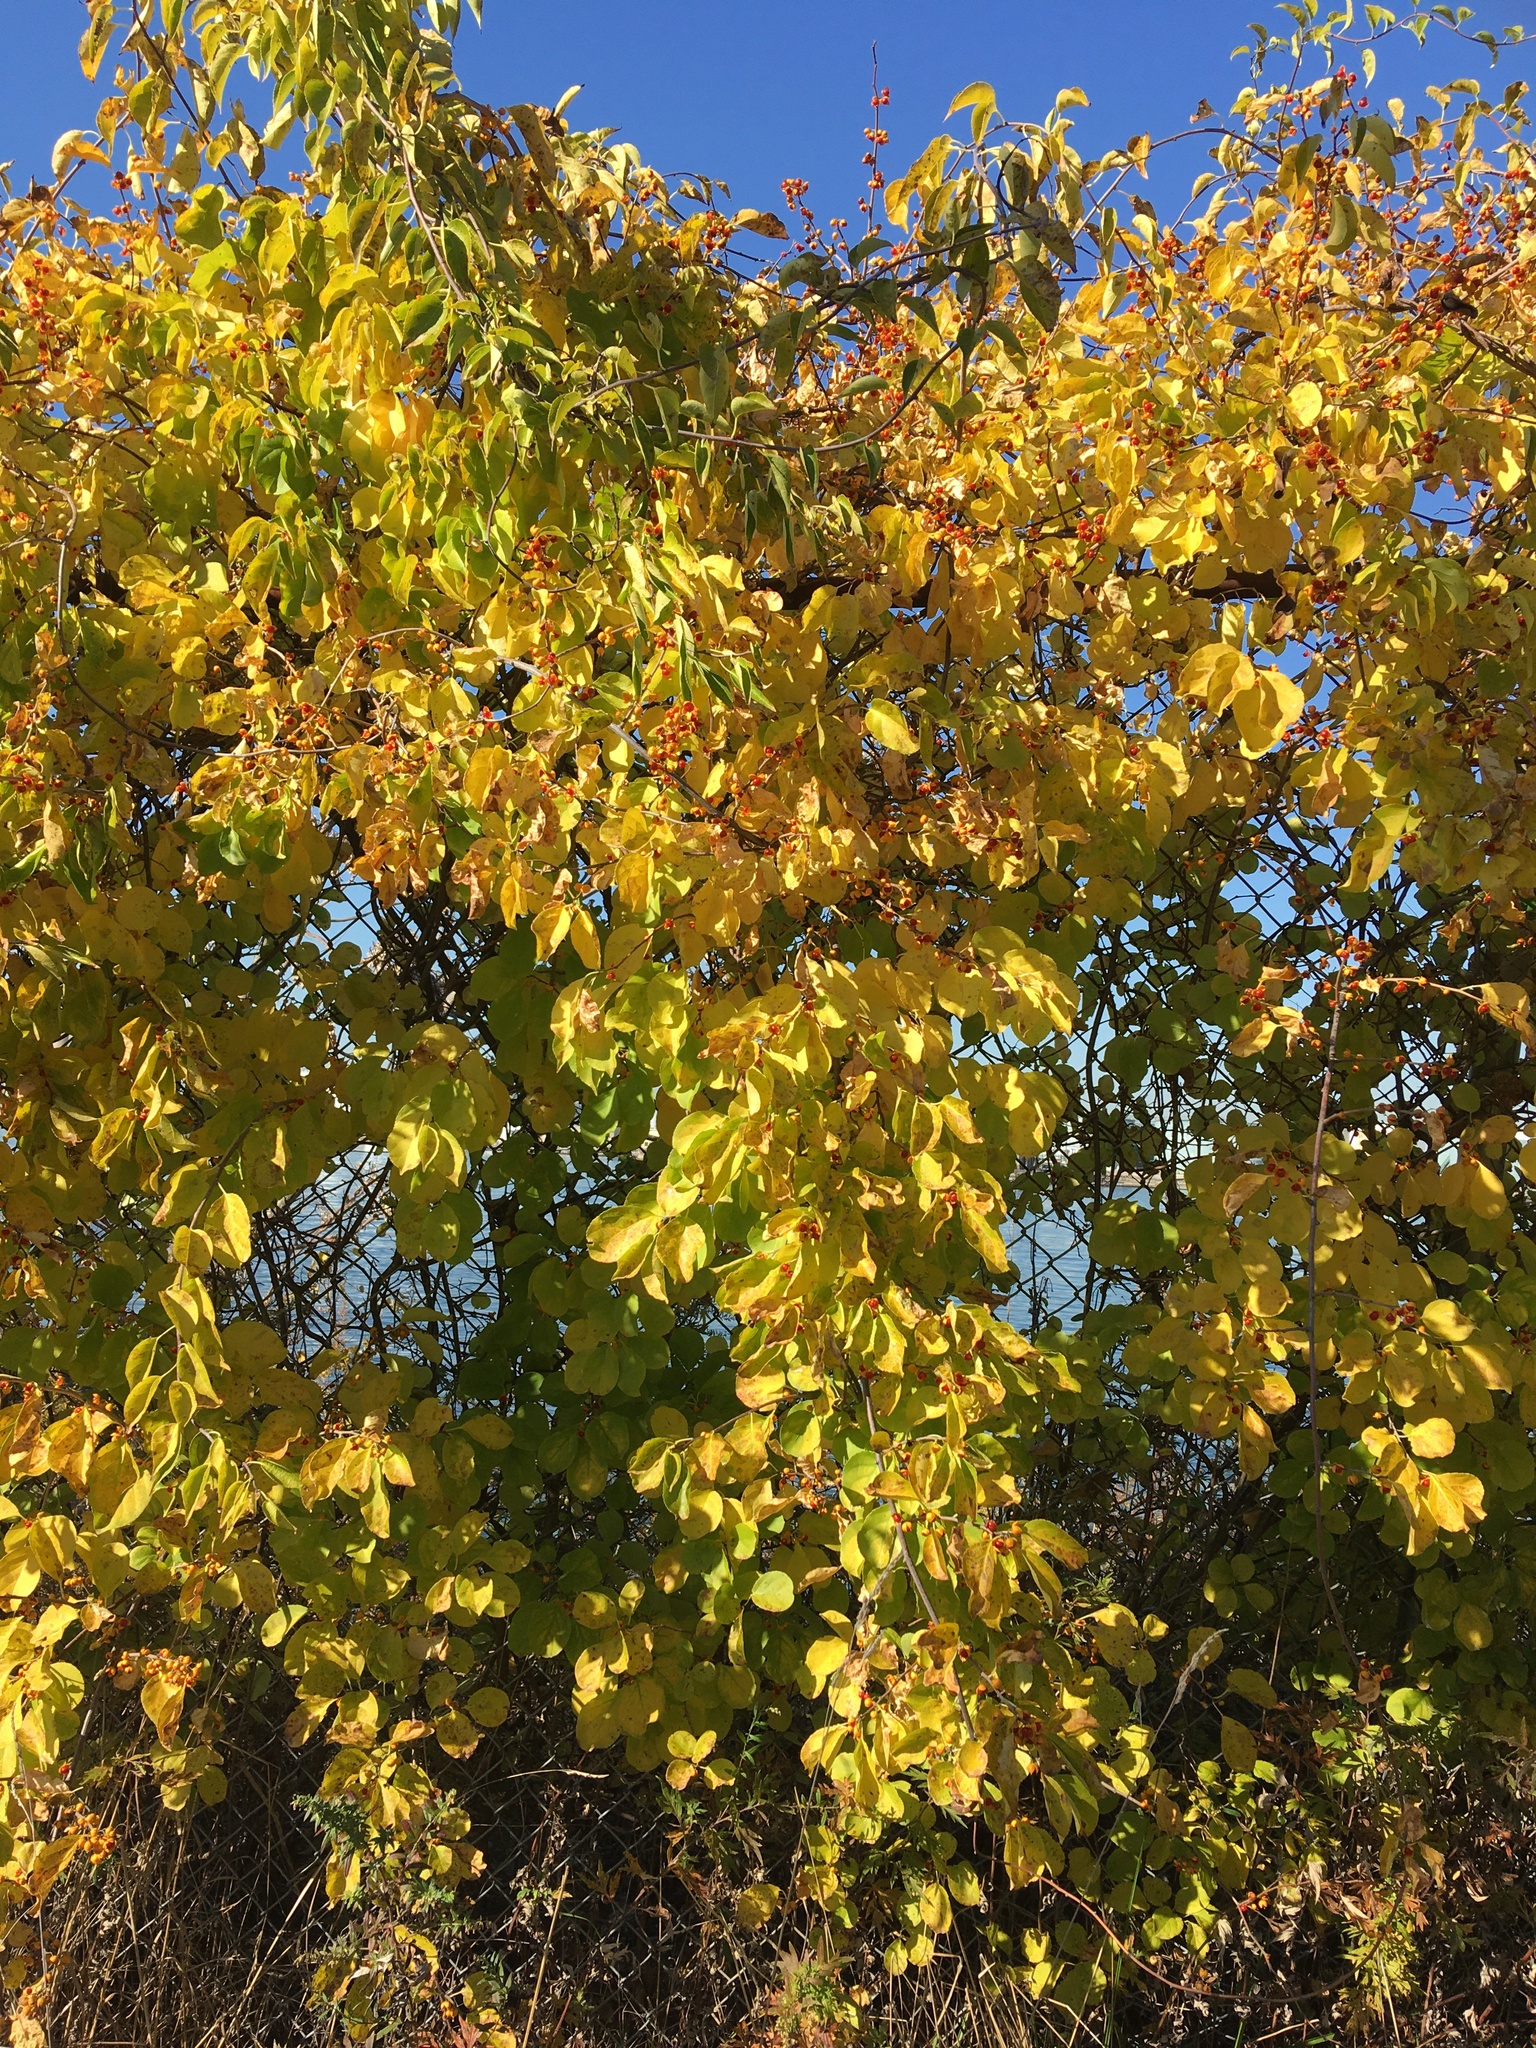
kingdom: Plantae
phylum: Tracheophyta
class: Magnoliopsida
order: Celastrales
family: Celastraceae
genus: Celastrus
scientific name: Celastrus orbiculatus
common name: Oriental bittersweet
